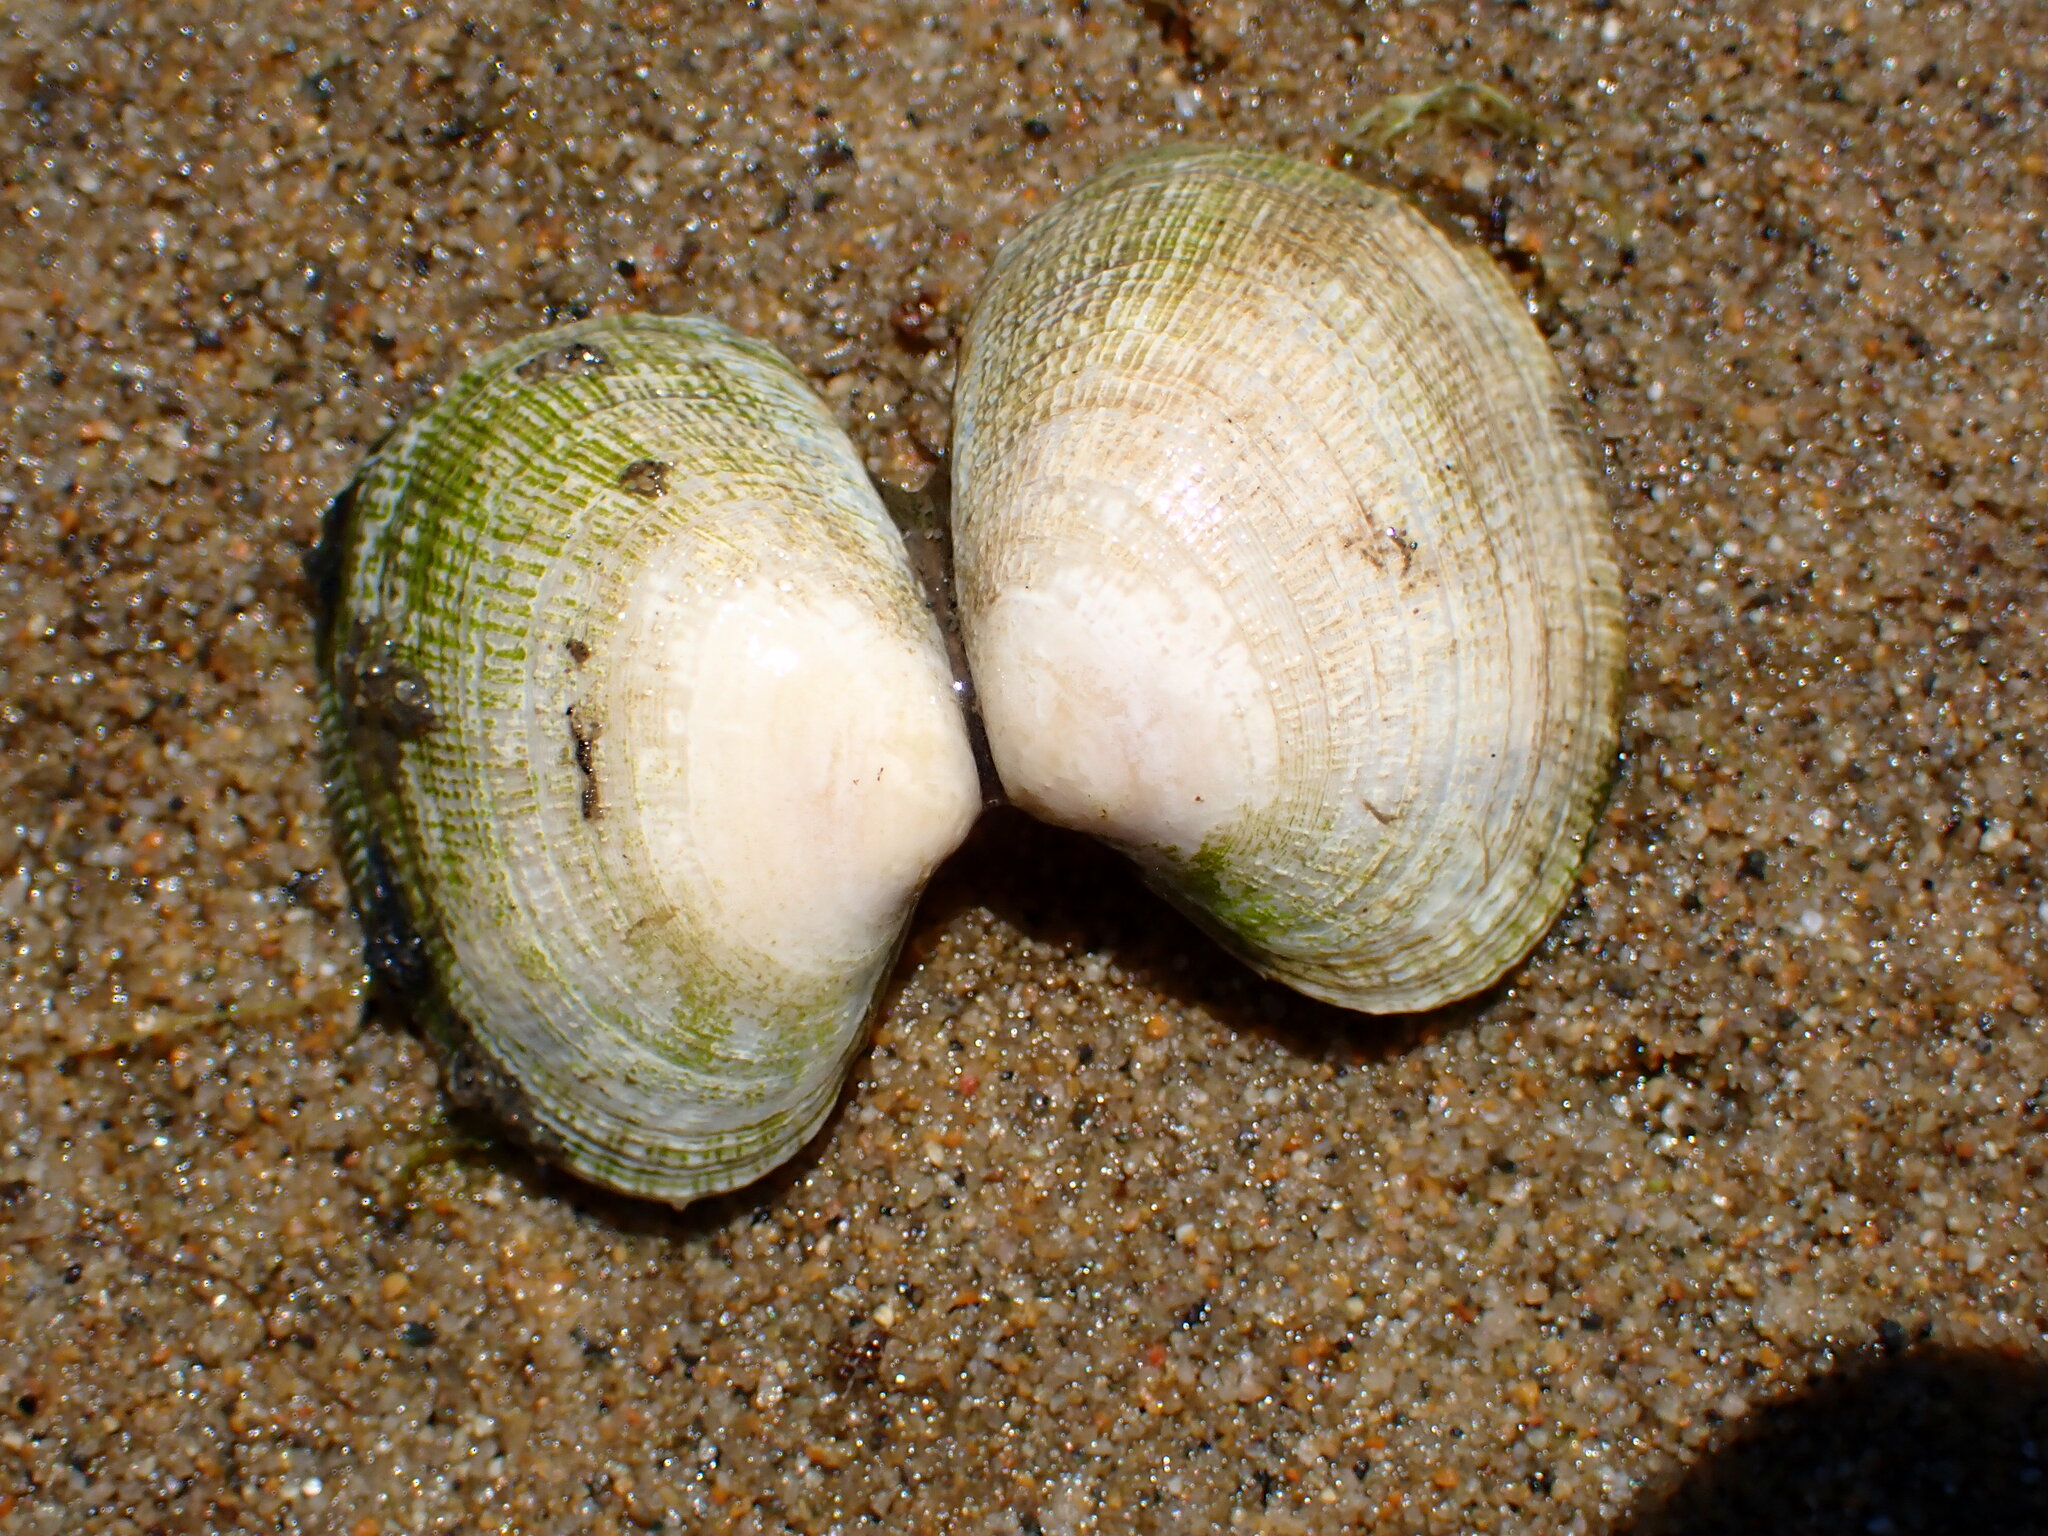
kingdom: Animalia
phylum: Mollusca
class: Bivalvia
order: Venerida
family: Veneridae
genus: Ruditapes
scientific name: Ruditapes philippinarum
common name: Manila clam
